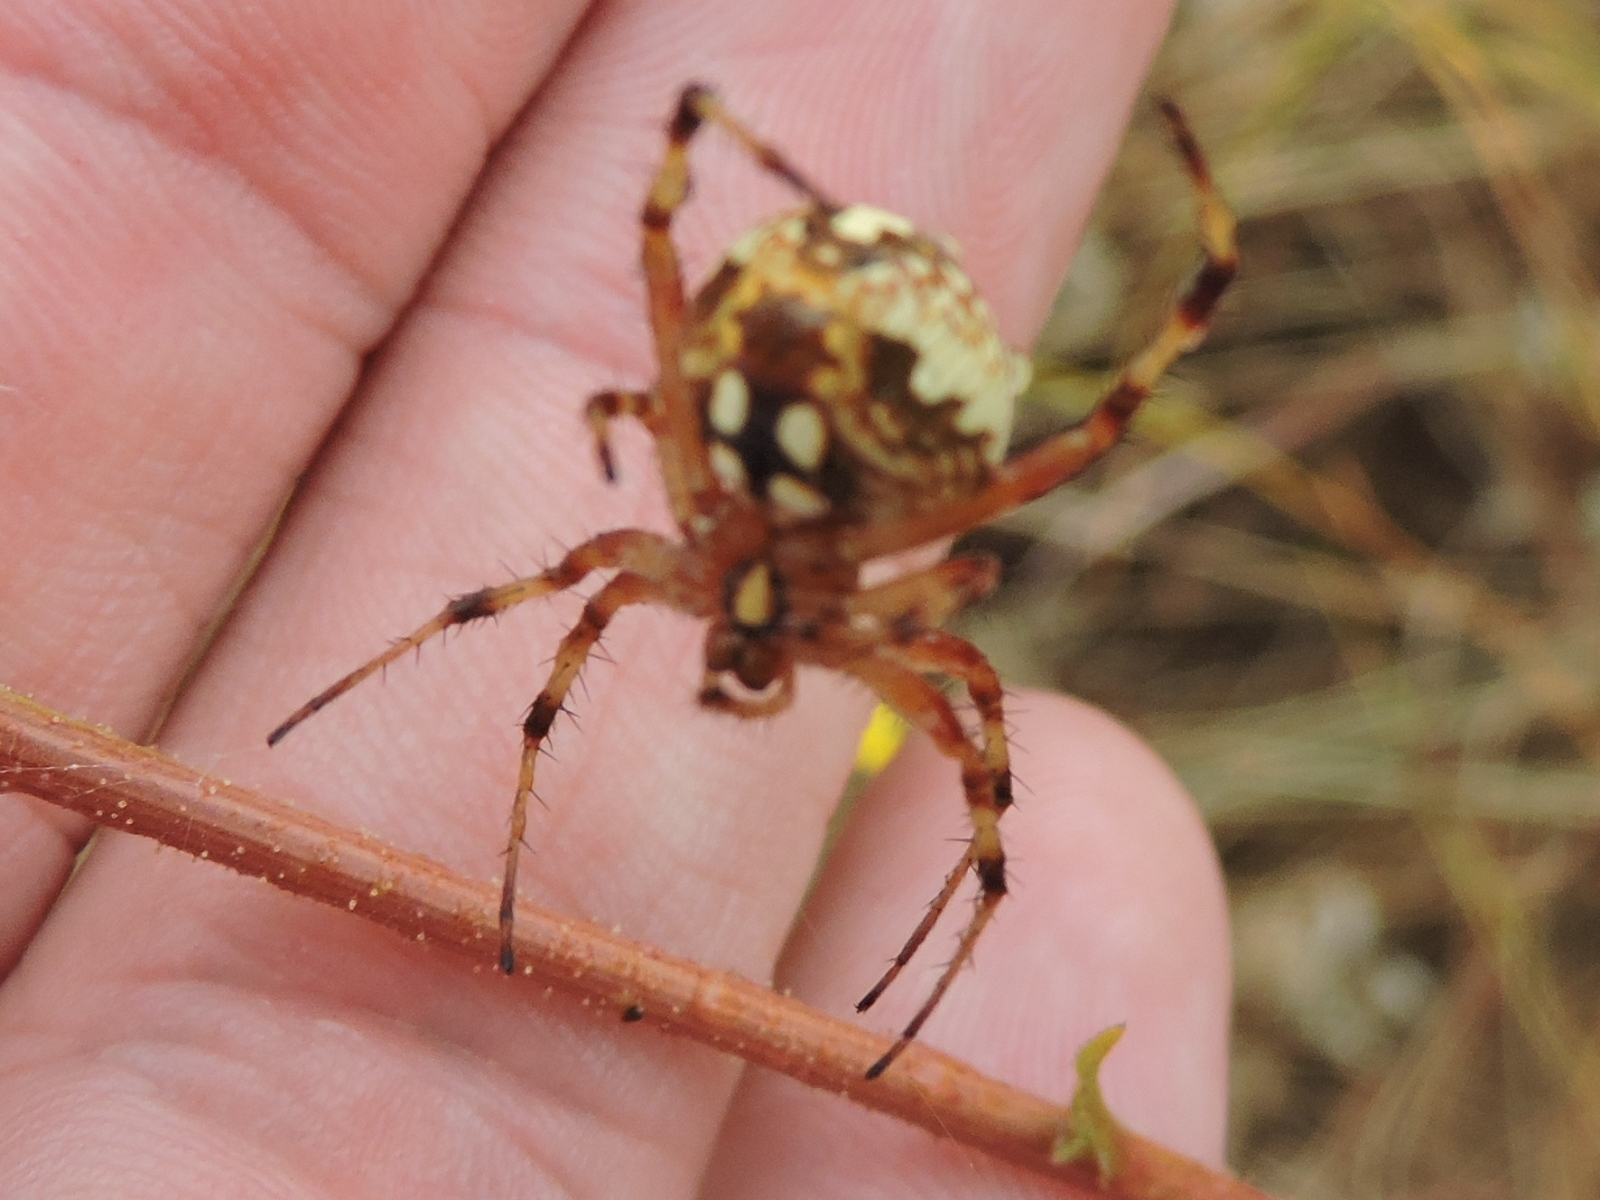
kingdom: Animalia
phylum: Arthropoda
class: Arachnida
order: Araneae
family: Araneidae
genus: Neoscona
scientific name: Neoscona oaxacensis
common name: Orb weavers
